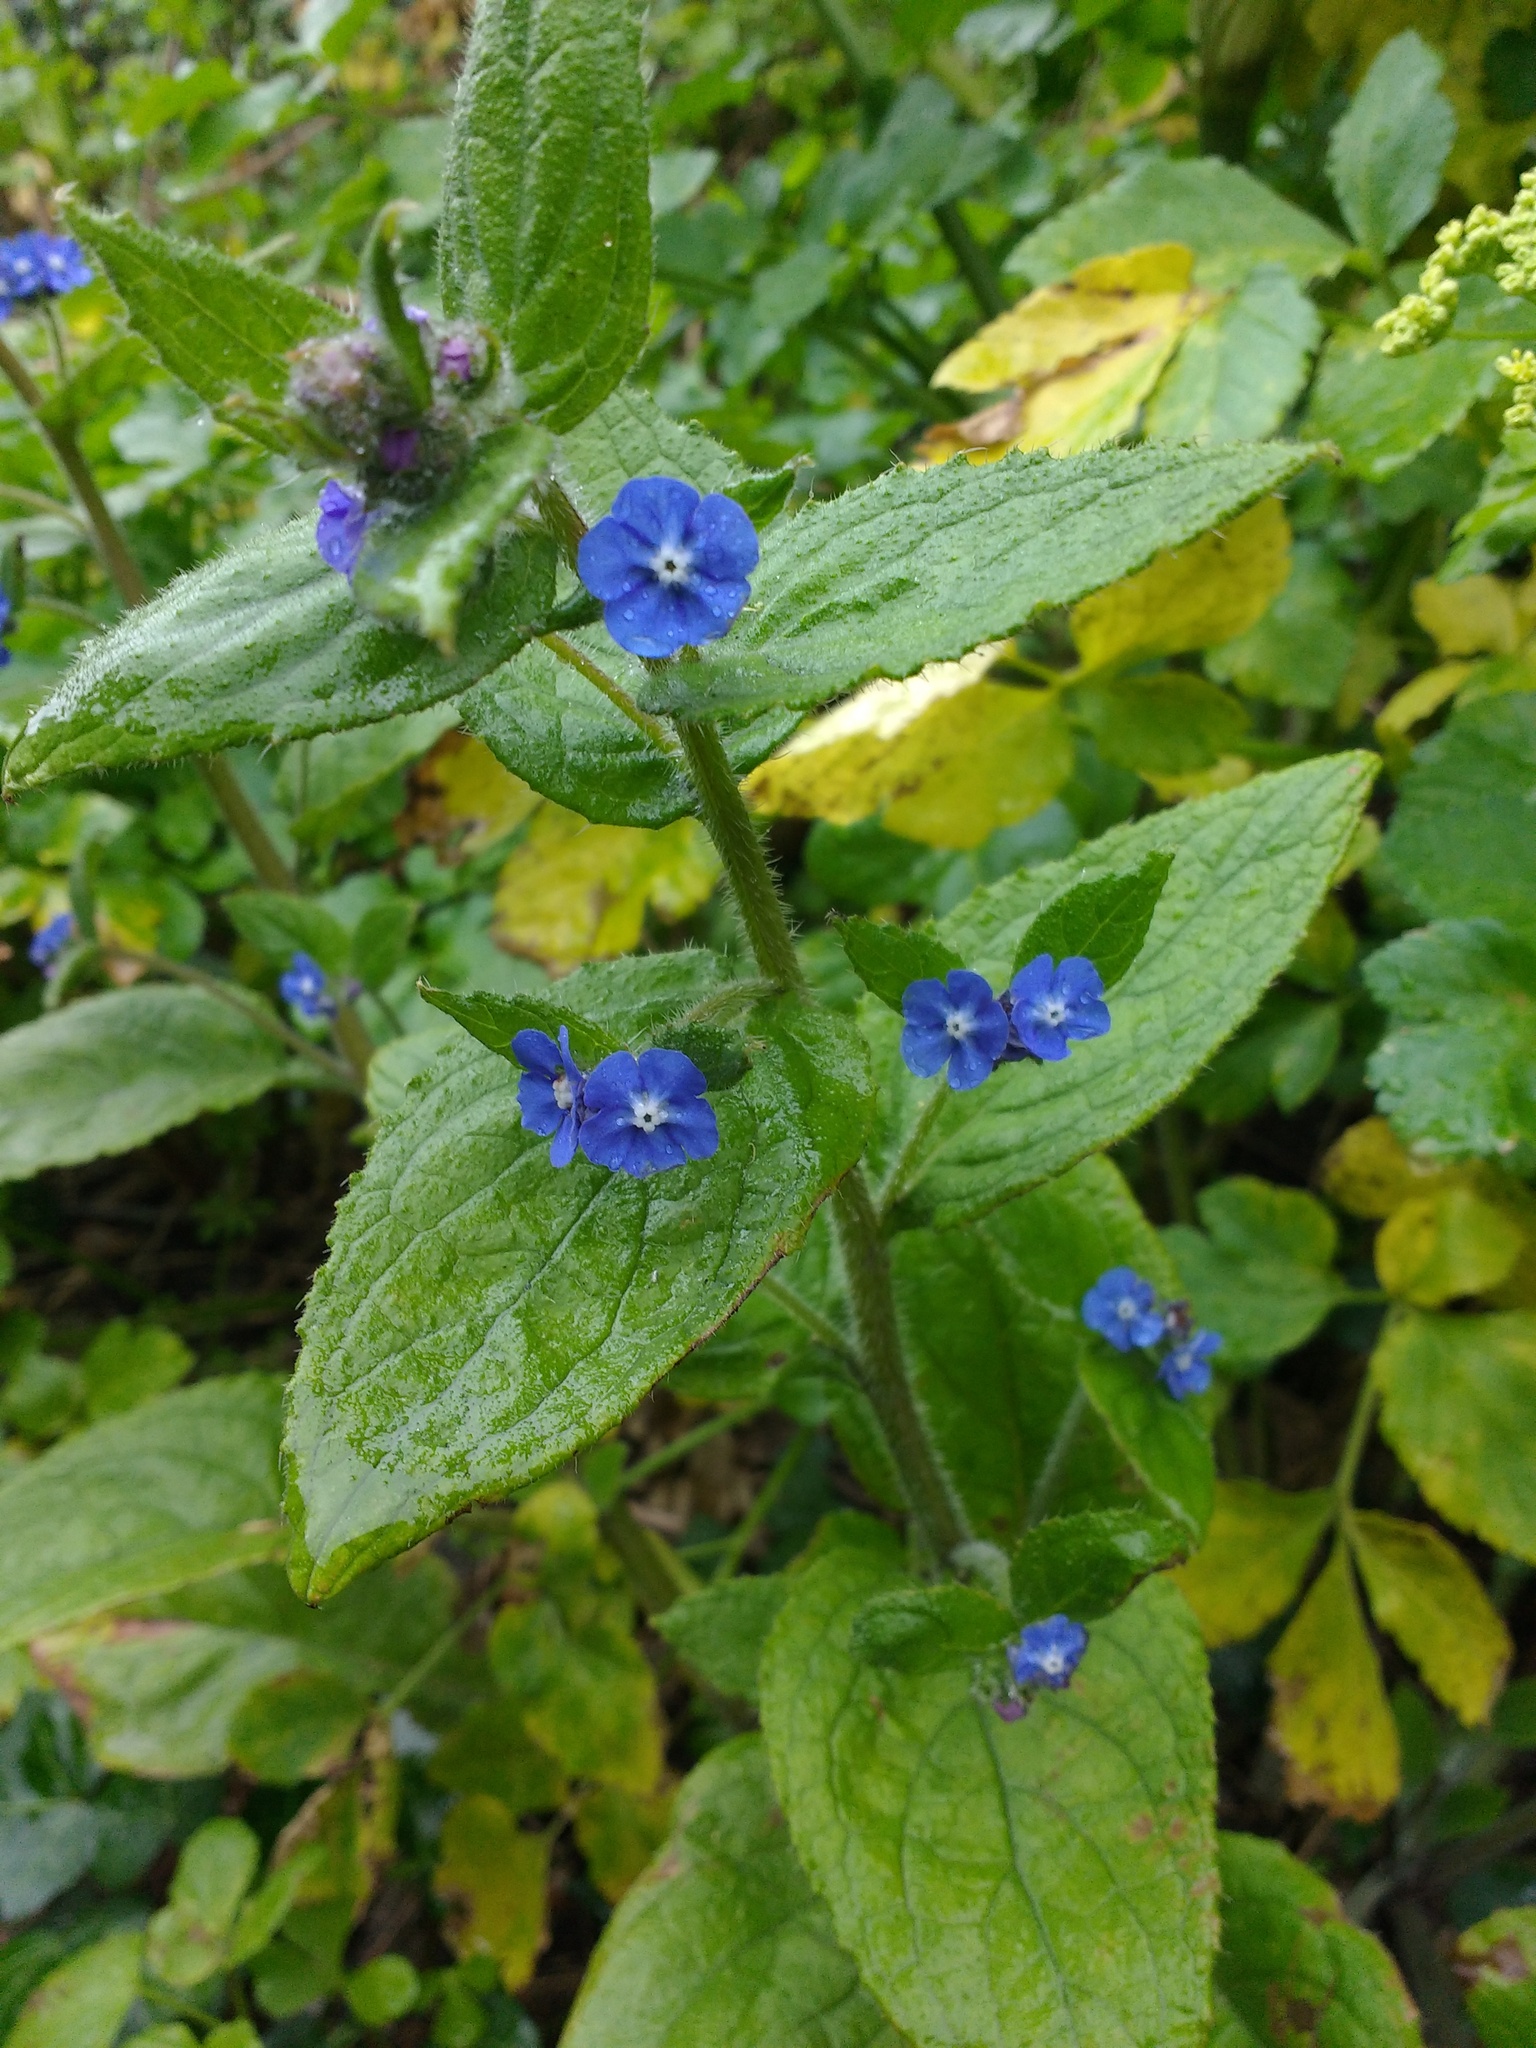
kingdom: Plantae
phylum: Tracheophyta
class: Magnoliopsida
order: Boraginales
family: Boraginaceae
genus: Pentaglottis
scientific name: Pentaglottis sempervirens
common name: Green alkanet
